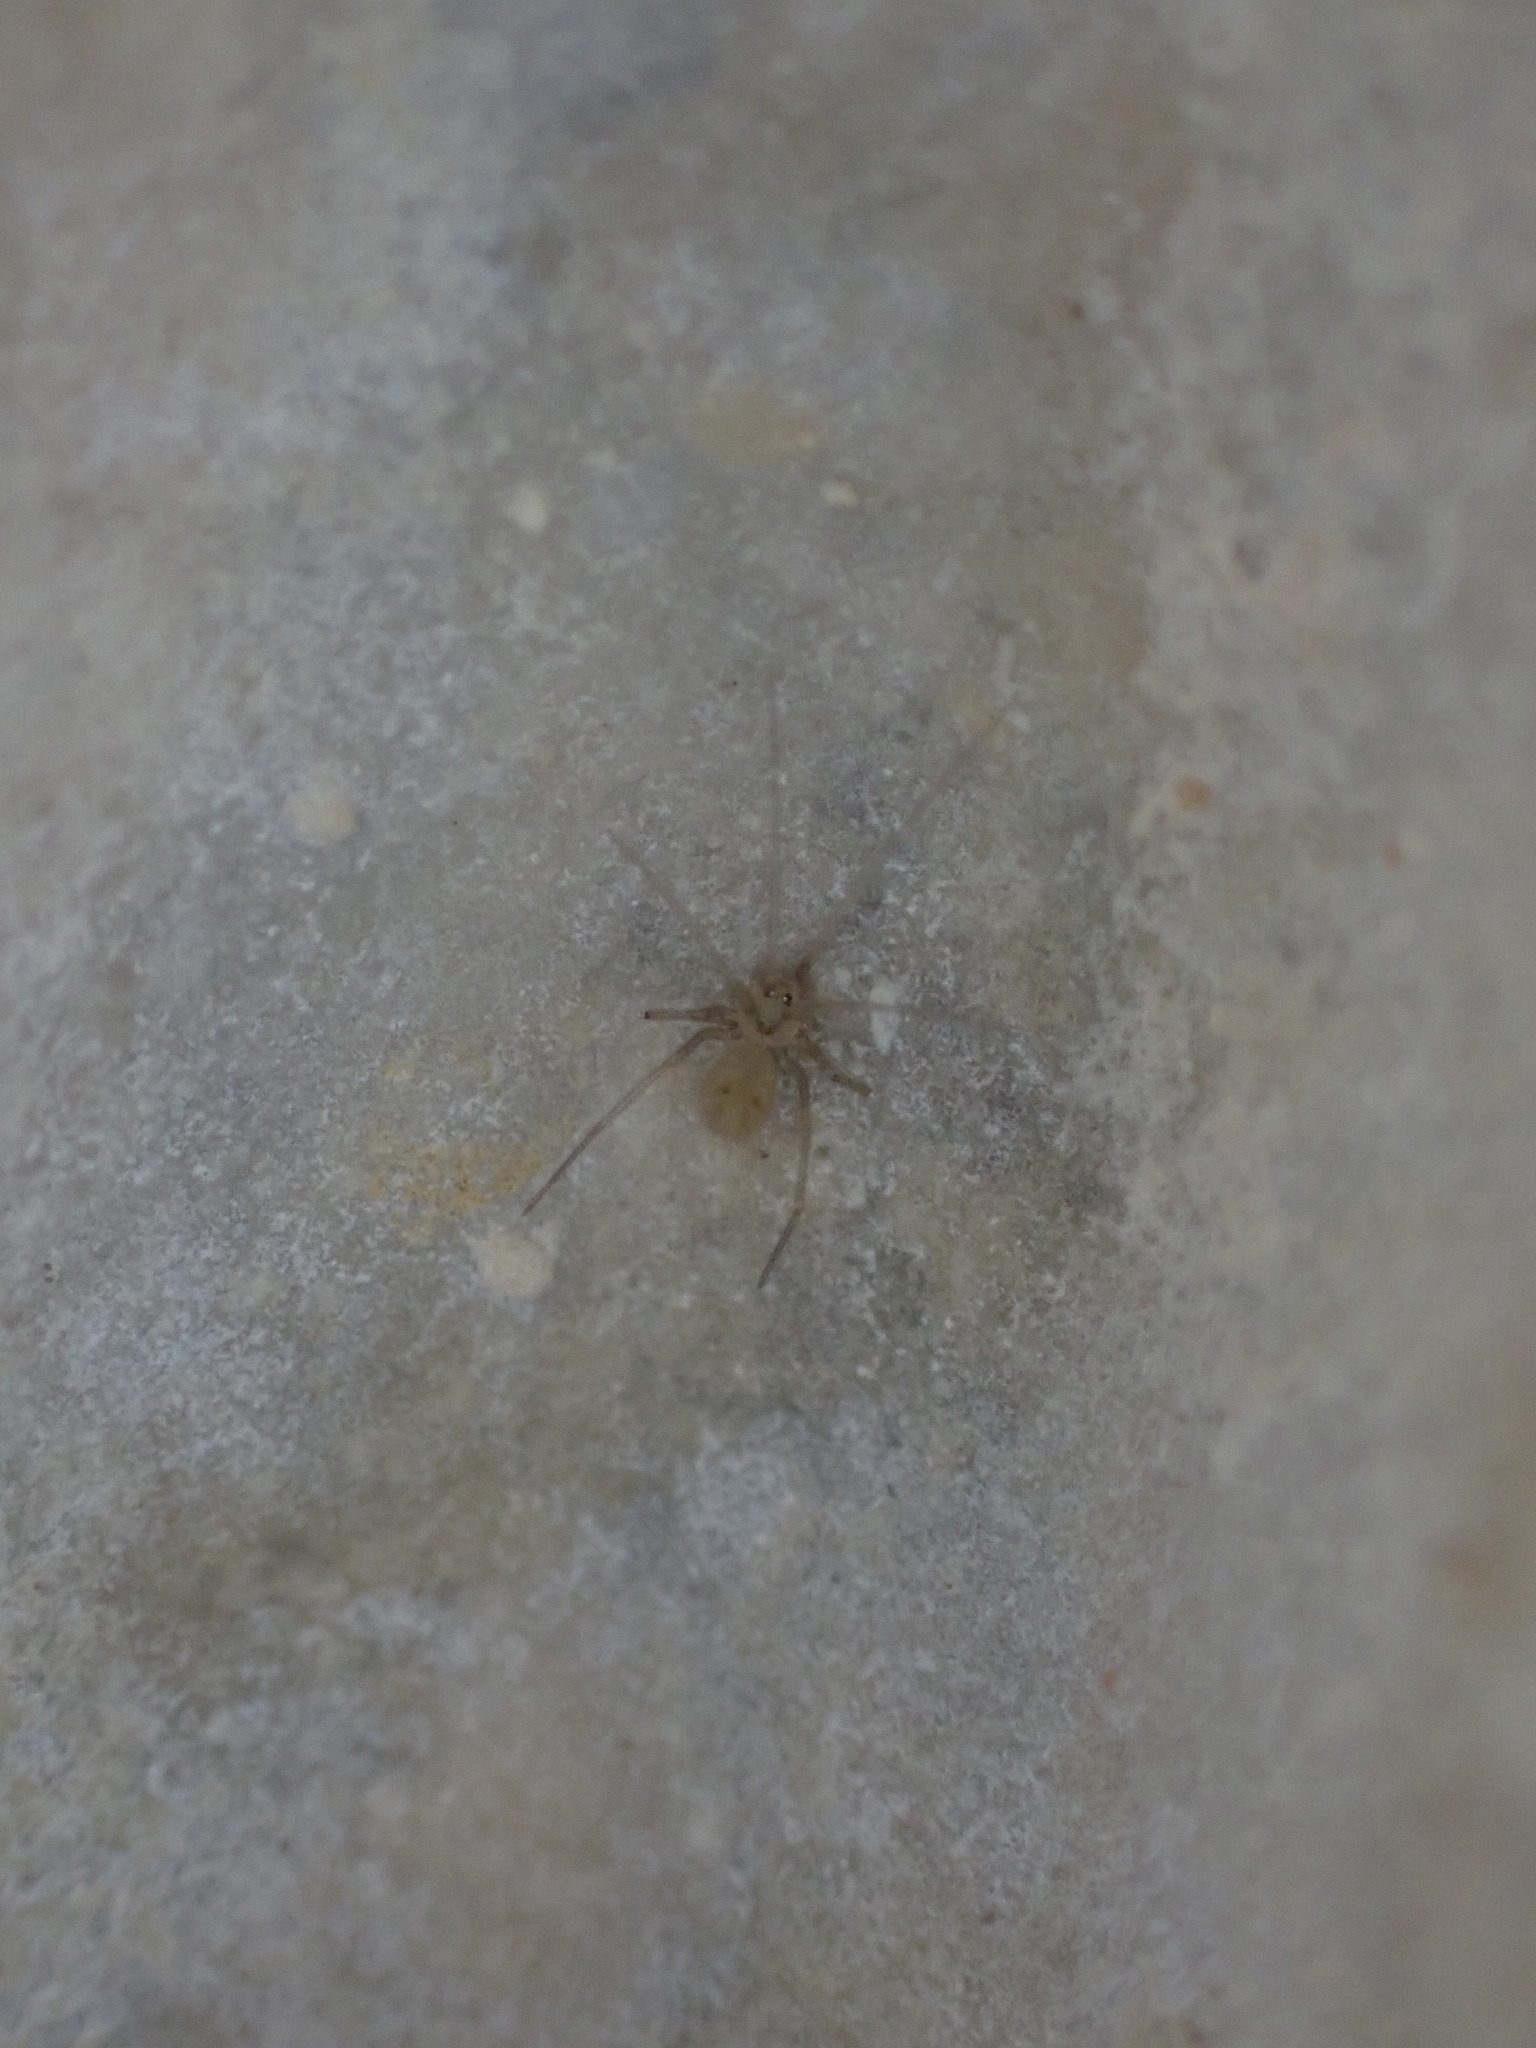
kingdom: Animalia
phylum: Arthropoda
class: Arachnida
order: Araneae
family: Pholcidae
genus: Spermophora
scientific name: Spermophora senoculata
